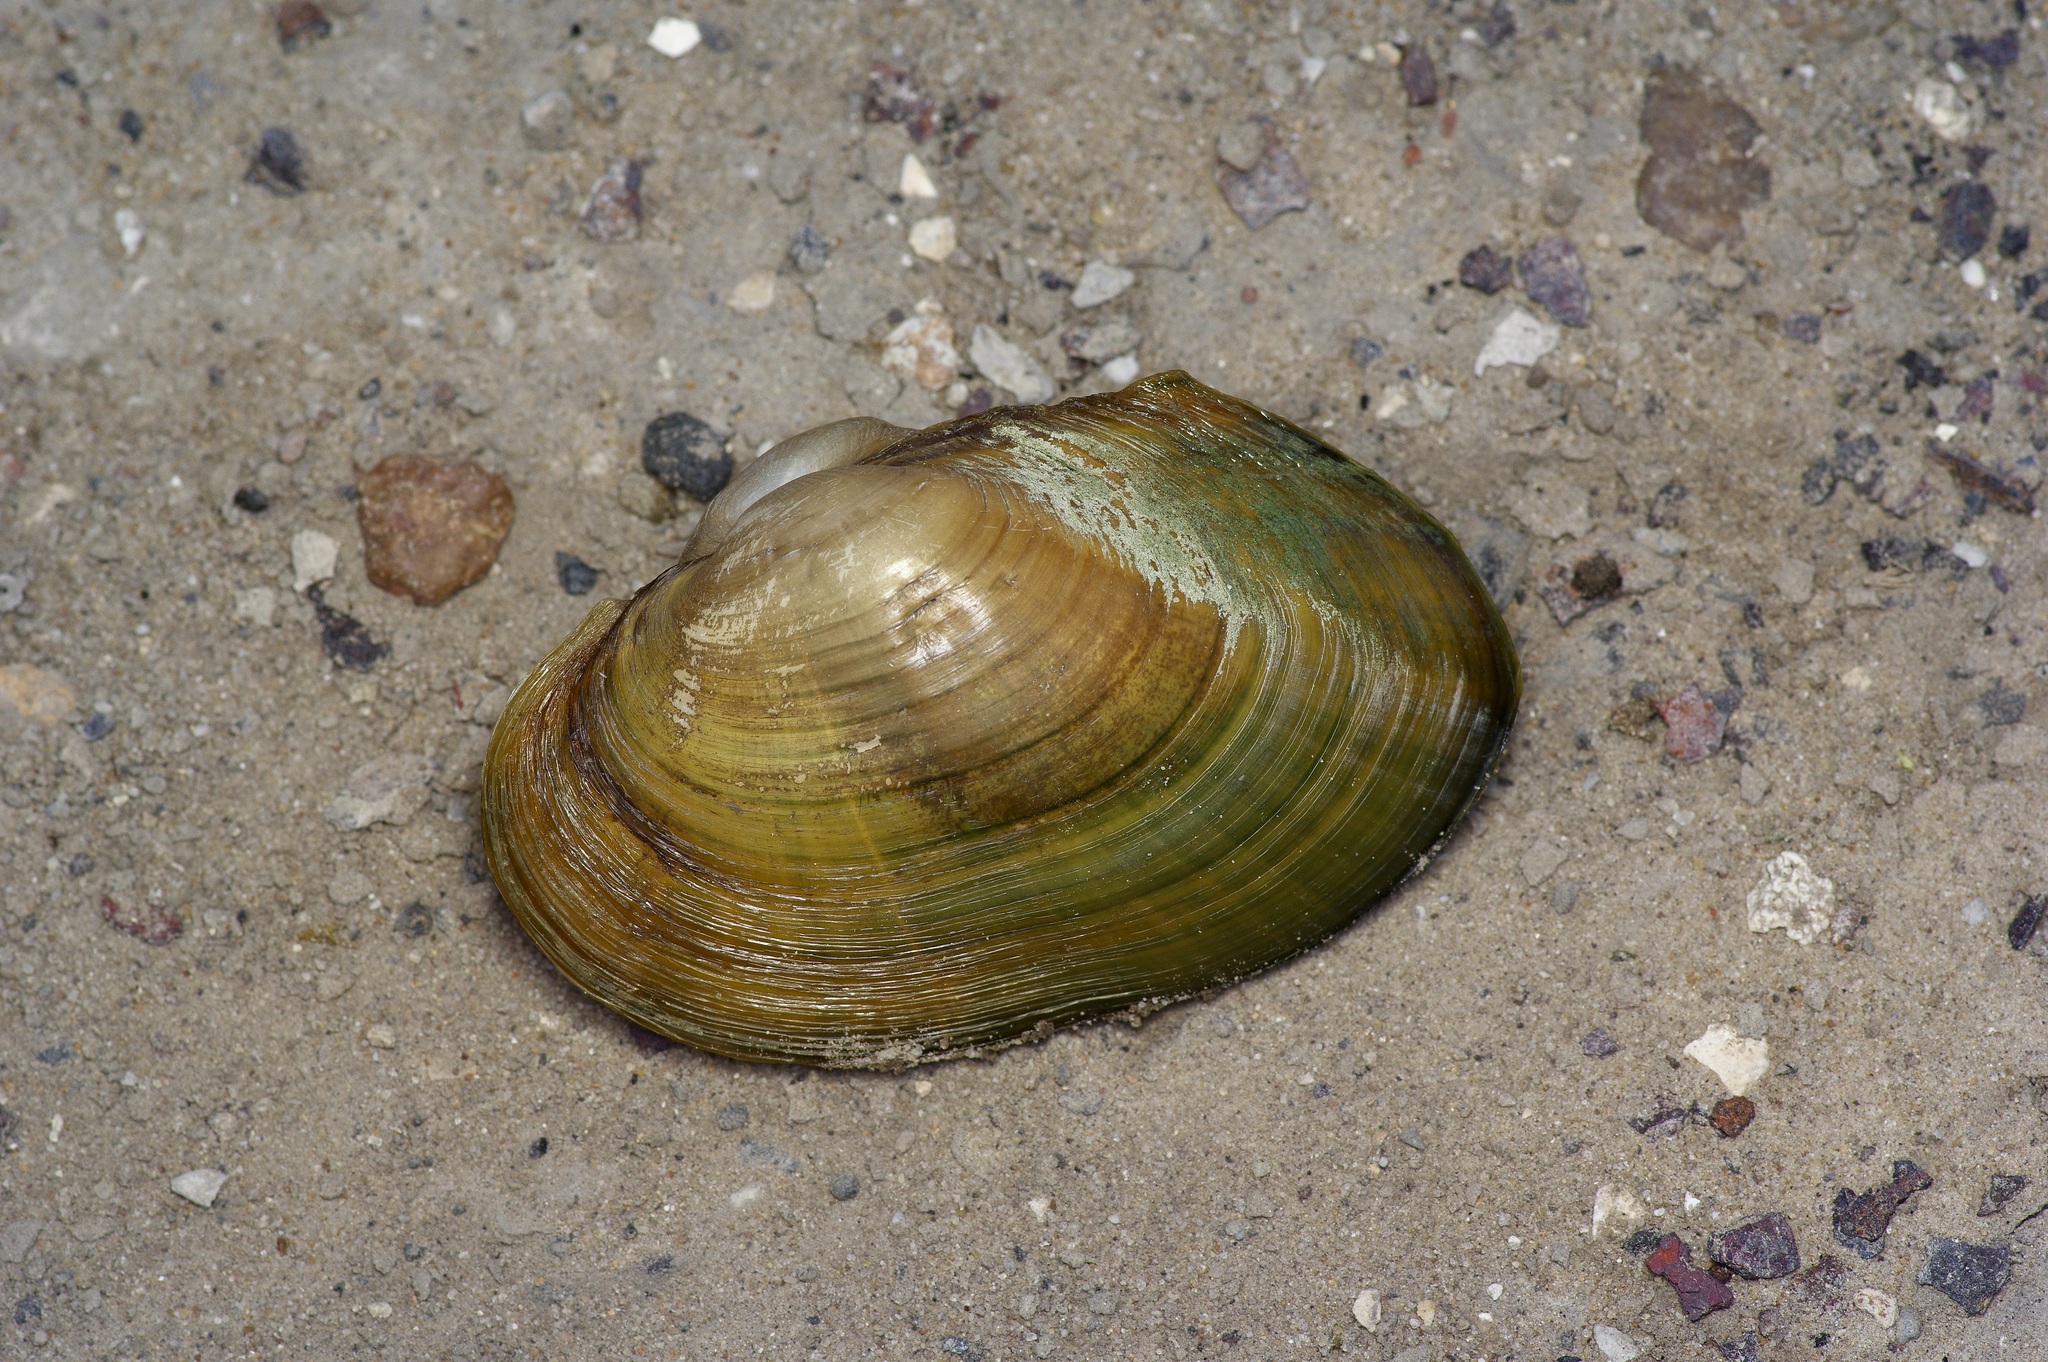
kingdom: Animalia
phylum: Mollusca
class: Bivalvia
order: Unionida
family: Unionidae
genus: Cyrtonaias
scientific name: Cyrtonaias tampicoensis
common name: Tampico pearlymussel
